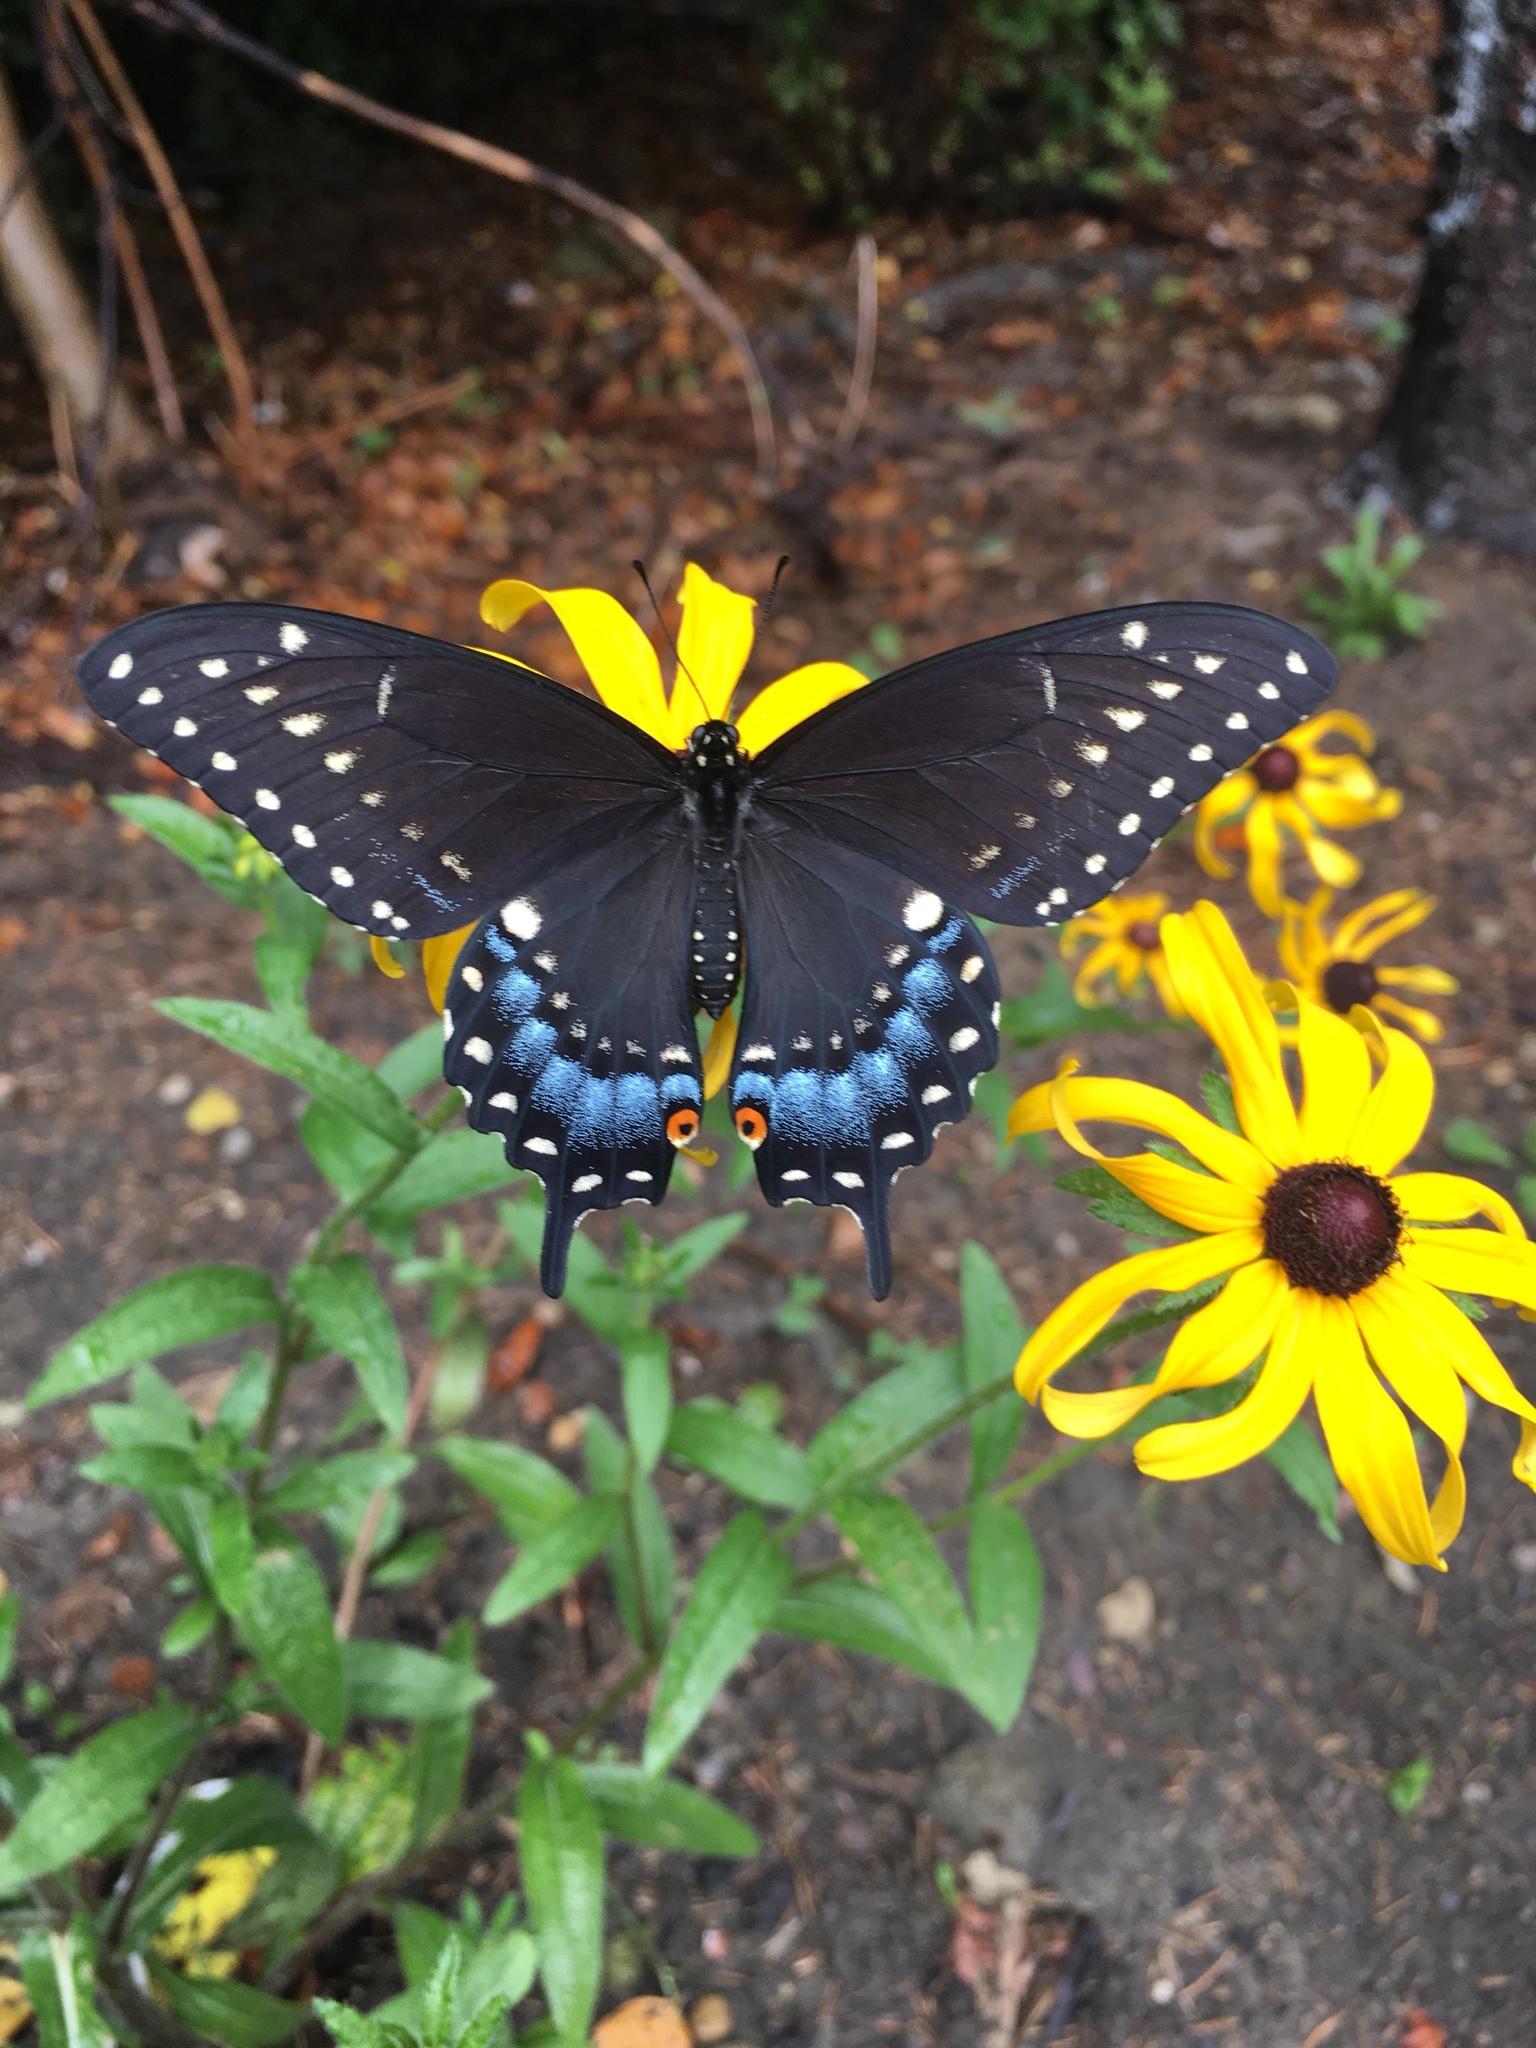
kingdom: Animalia
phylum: Arthropoda
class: Insecta
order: Lepidoptera
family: Papilionidae
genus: Papilio
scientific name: Papilio polyxenes
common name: Black swallowtail
